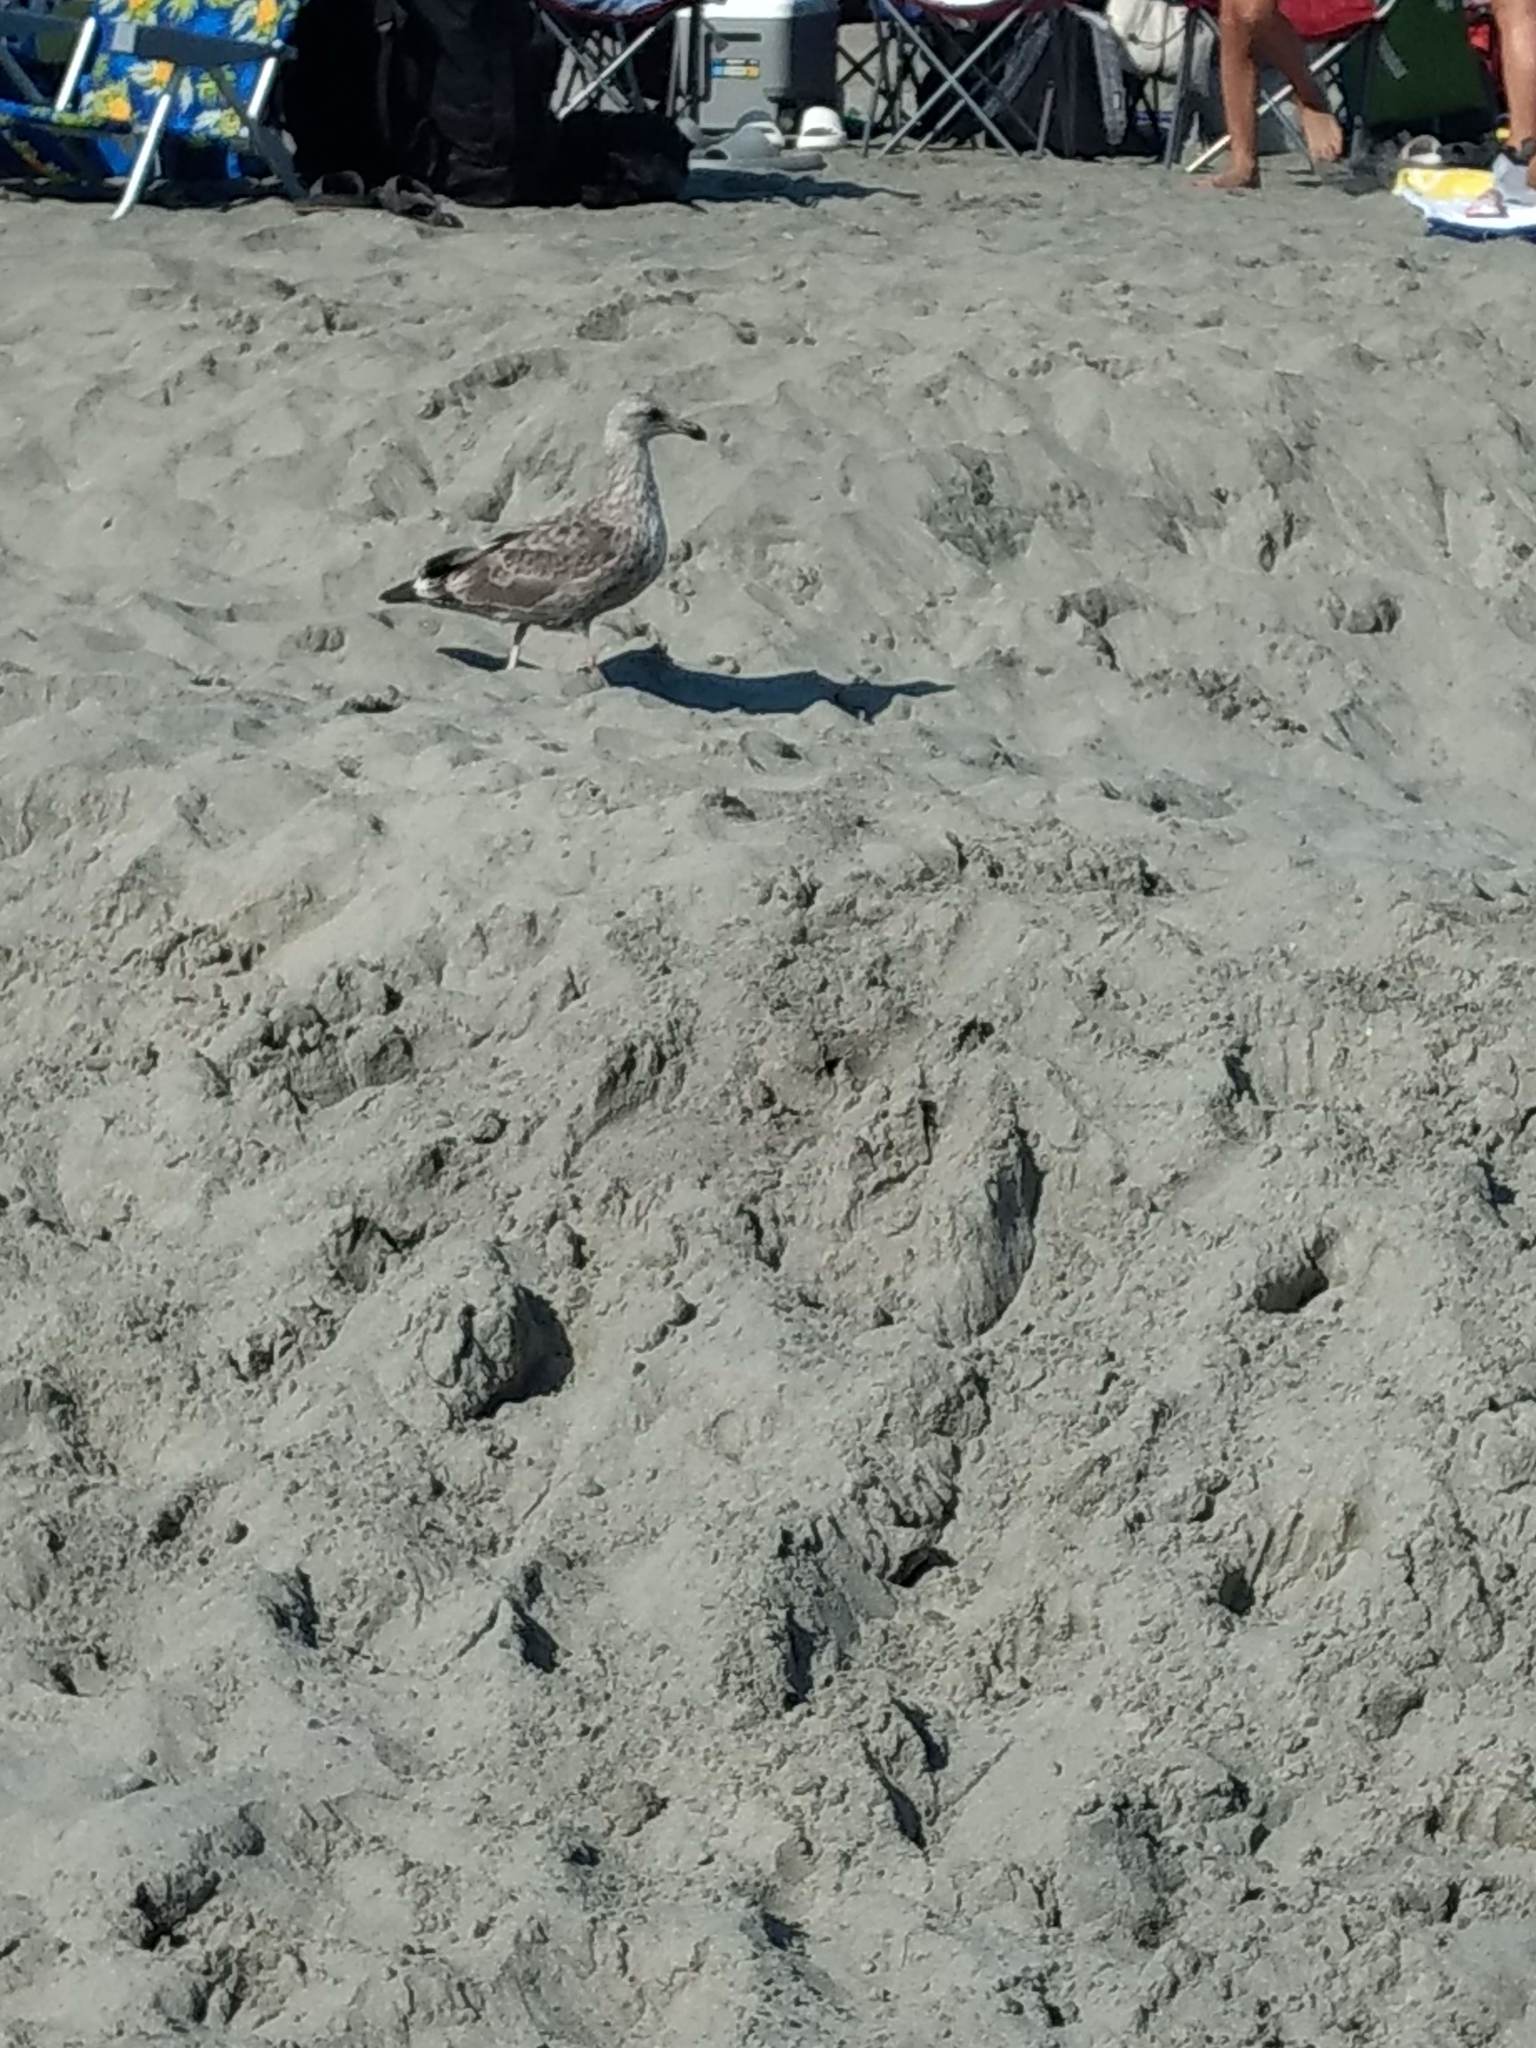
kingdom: Animalia
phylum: Chordata
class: Aves
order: Charadriiformes
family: Laridae
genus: Larus
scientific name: Larus occidentalis
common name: Western gull
